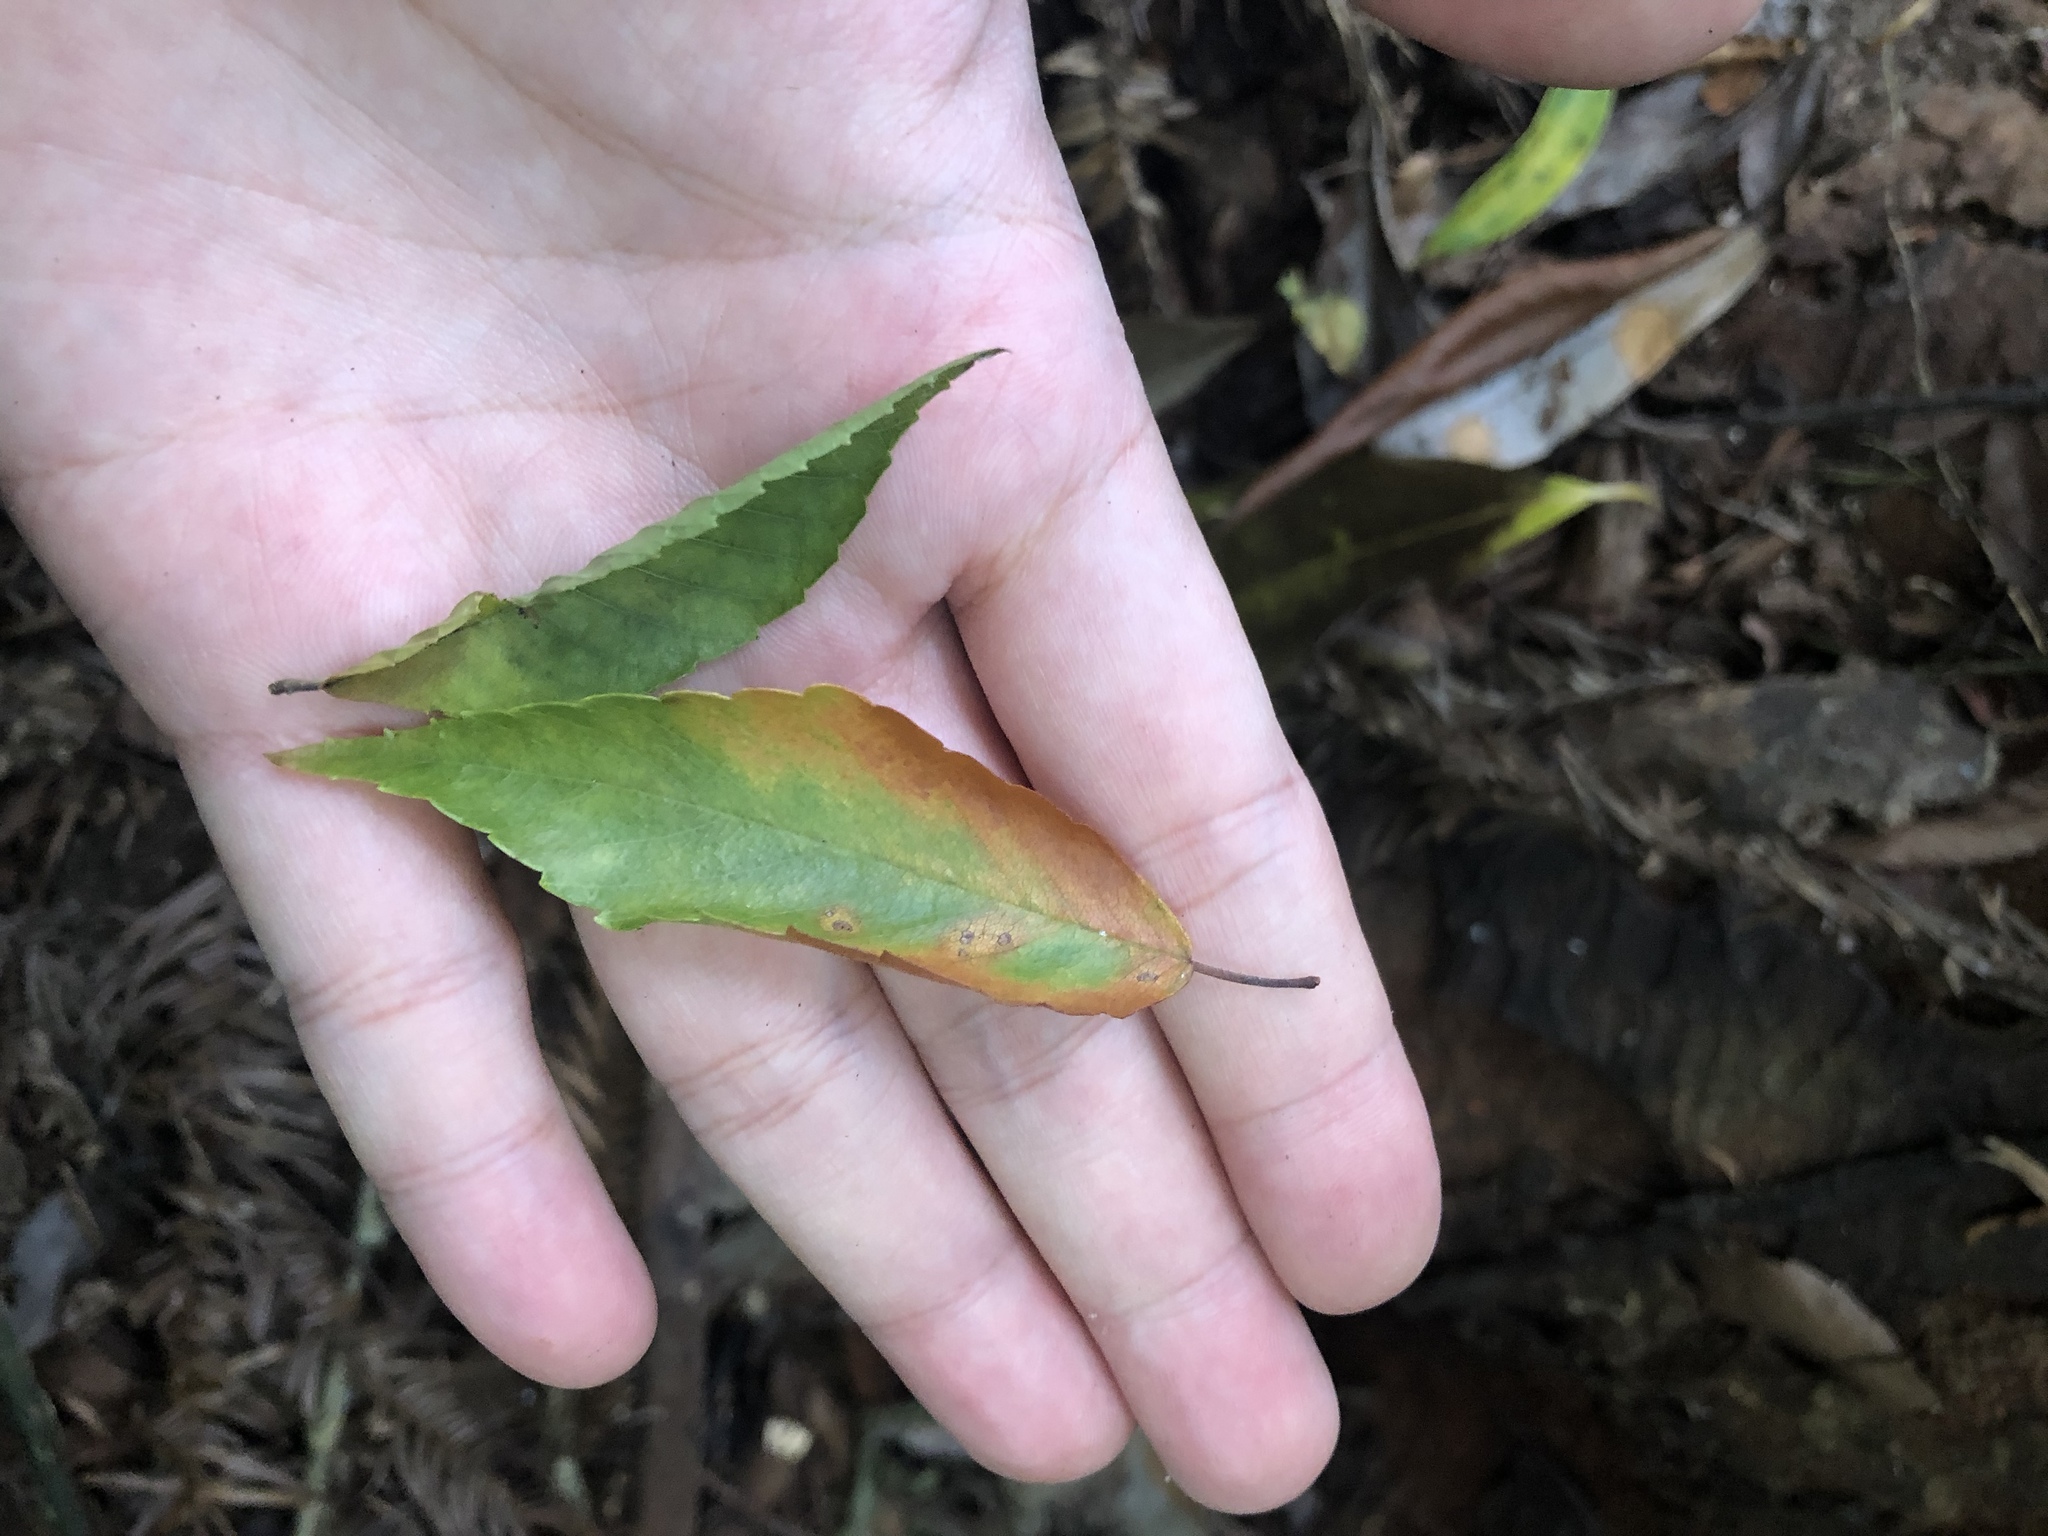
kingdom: Plantae
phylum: Tracheophyta
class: Magnoliopsida
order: Rosales
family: Ulmaceae
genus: Zelkova
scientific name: Zelkova serrata
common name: Japanese zelkova
